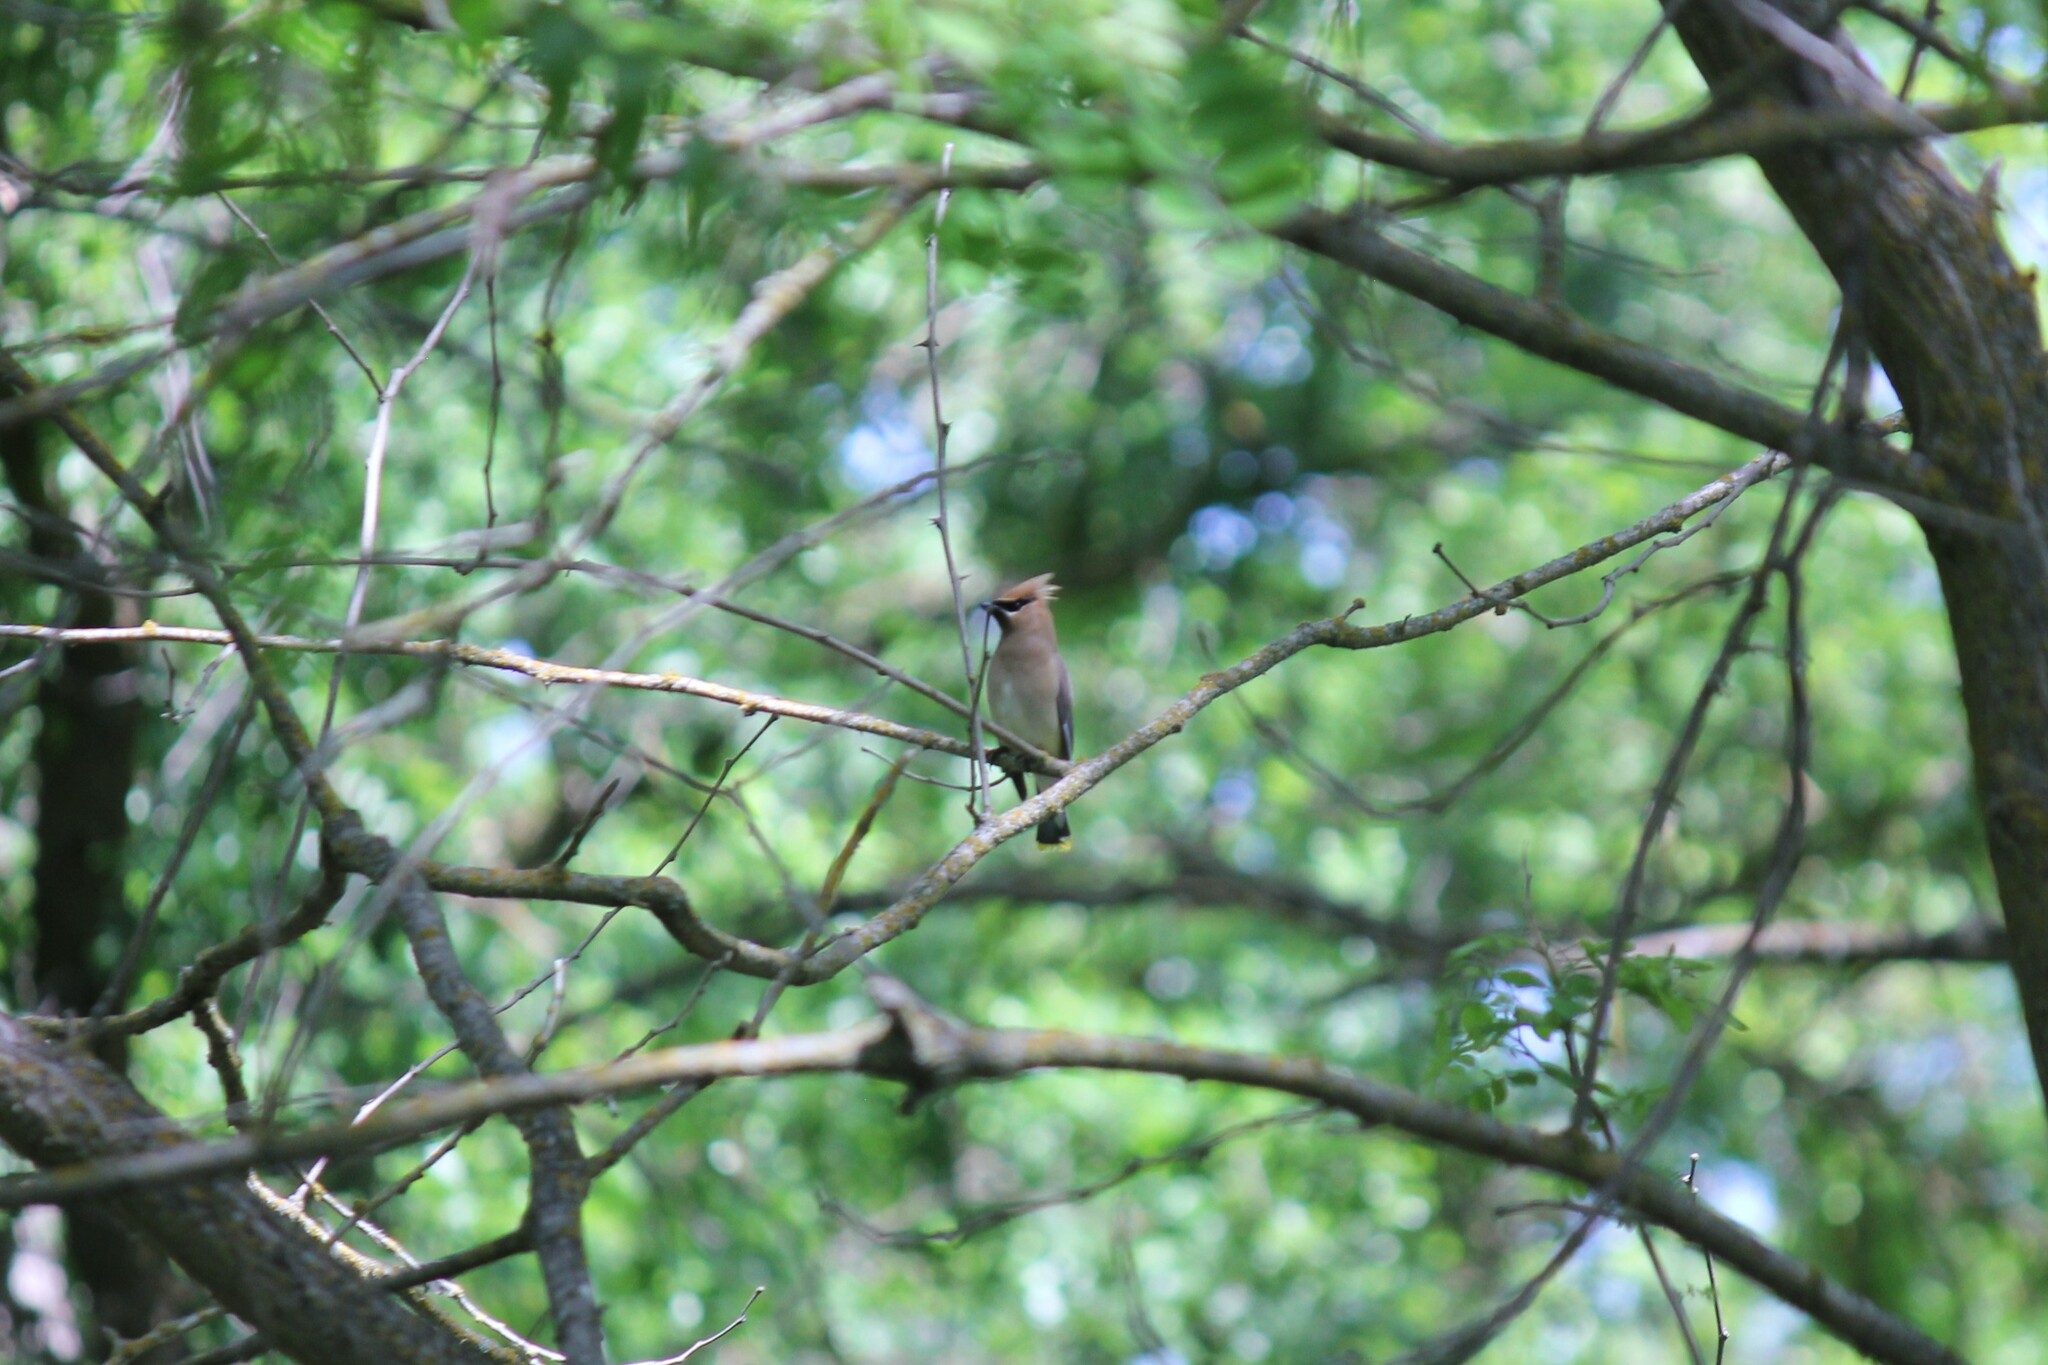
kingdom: Animalia
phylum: Chordata
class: Aves
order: Passeriformes
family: Bombycillidae
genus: Bombycilla
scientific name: Bombycilla cedrorum
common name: Cedar waxwing
